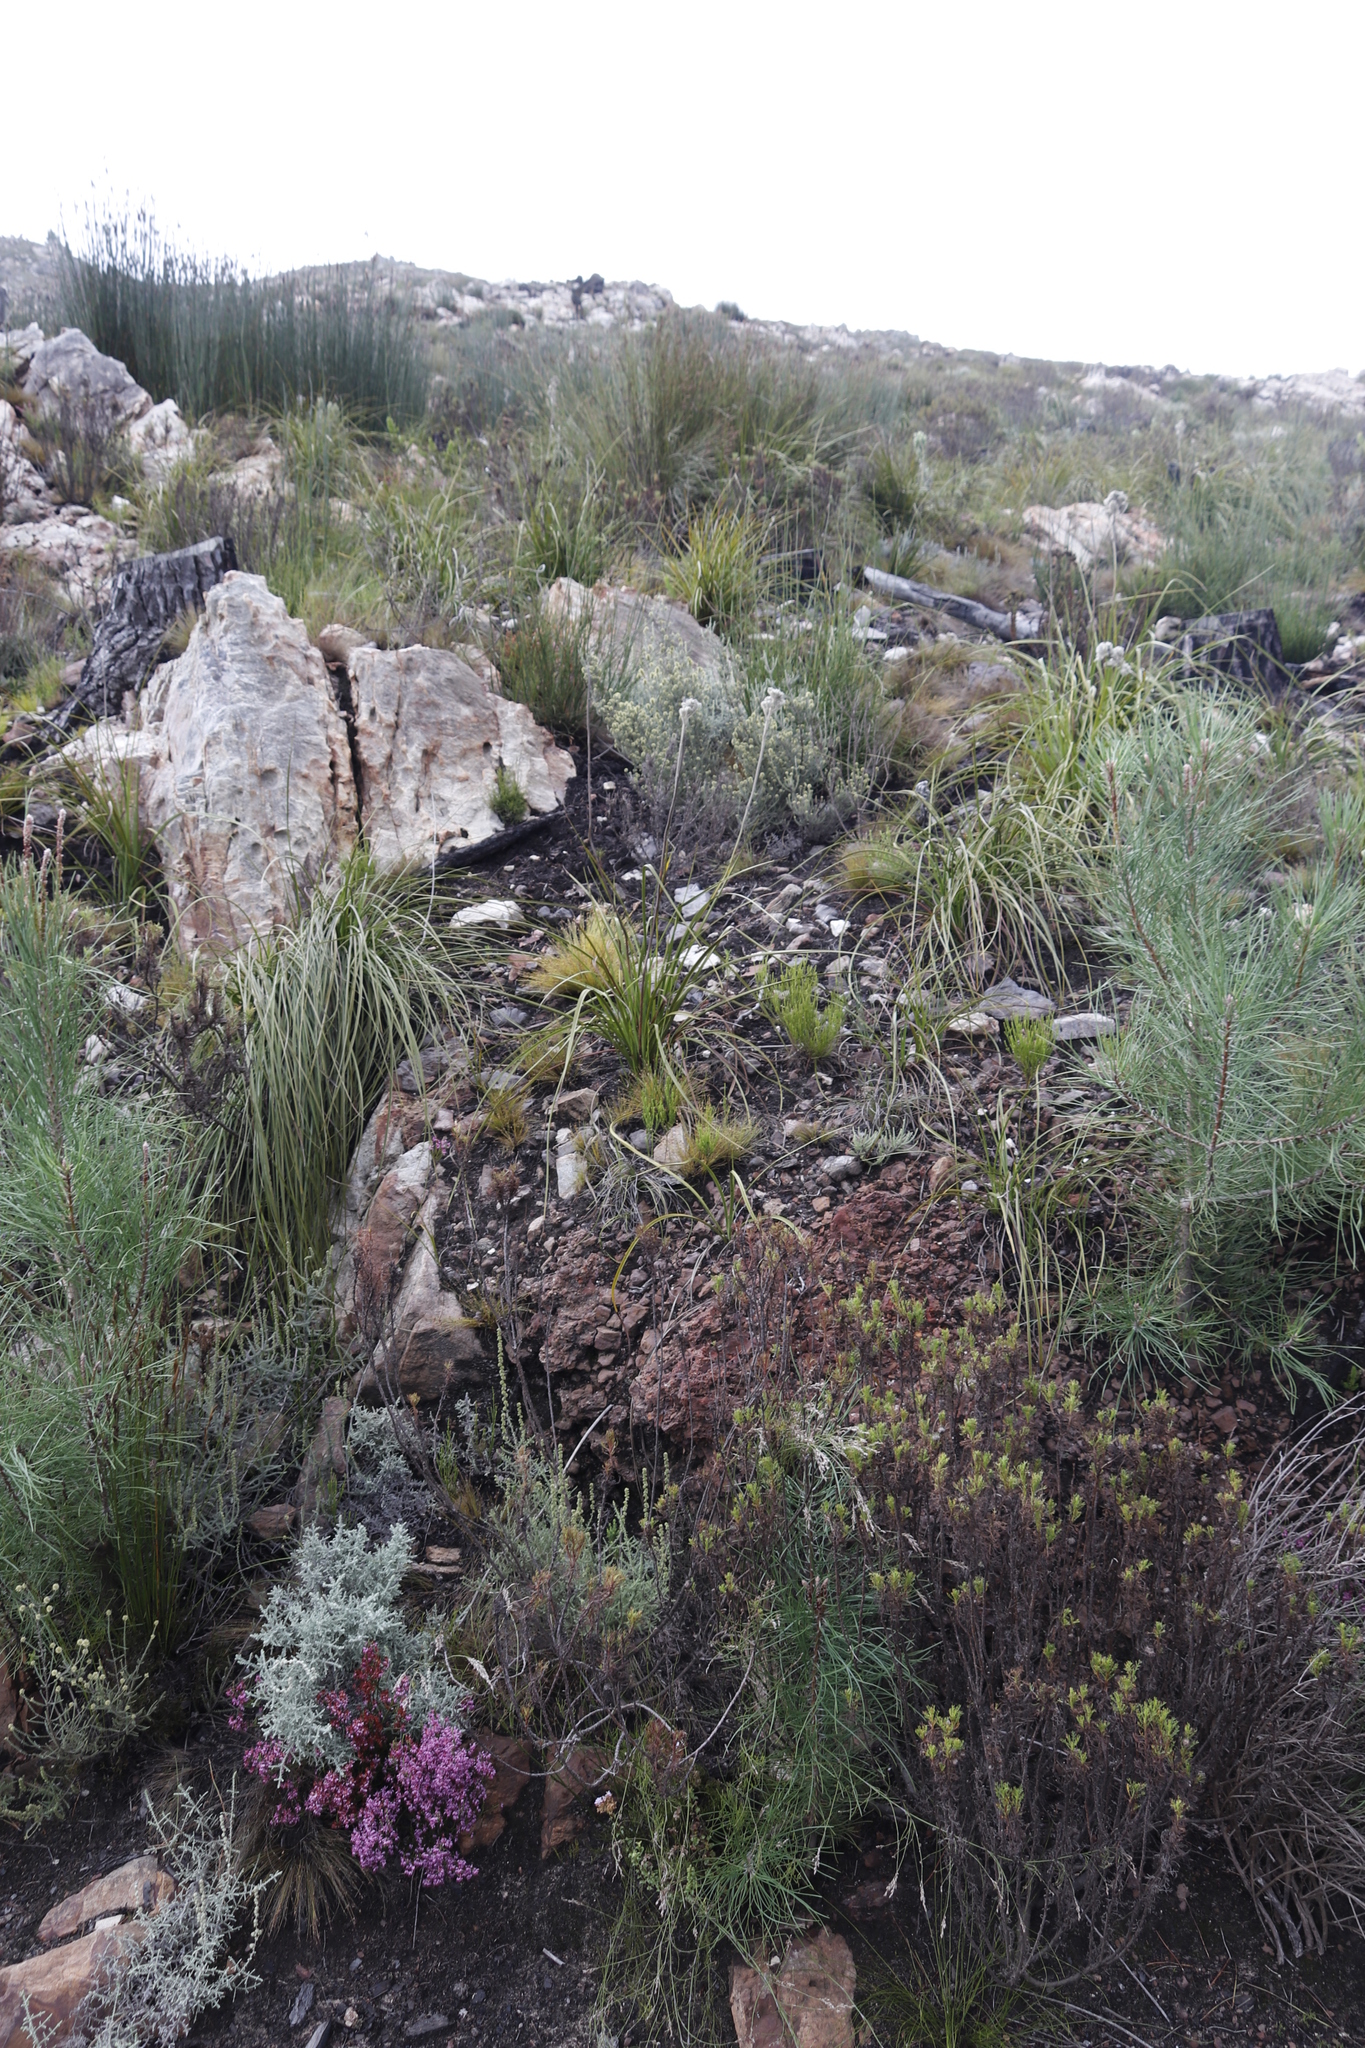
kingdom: Plantae
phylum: Tracheophyta
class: Liliopsida
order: Asparagales
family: Lanariaceae
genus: Lanaria
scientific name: Lanaria lanata
